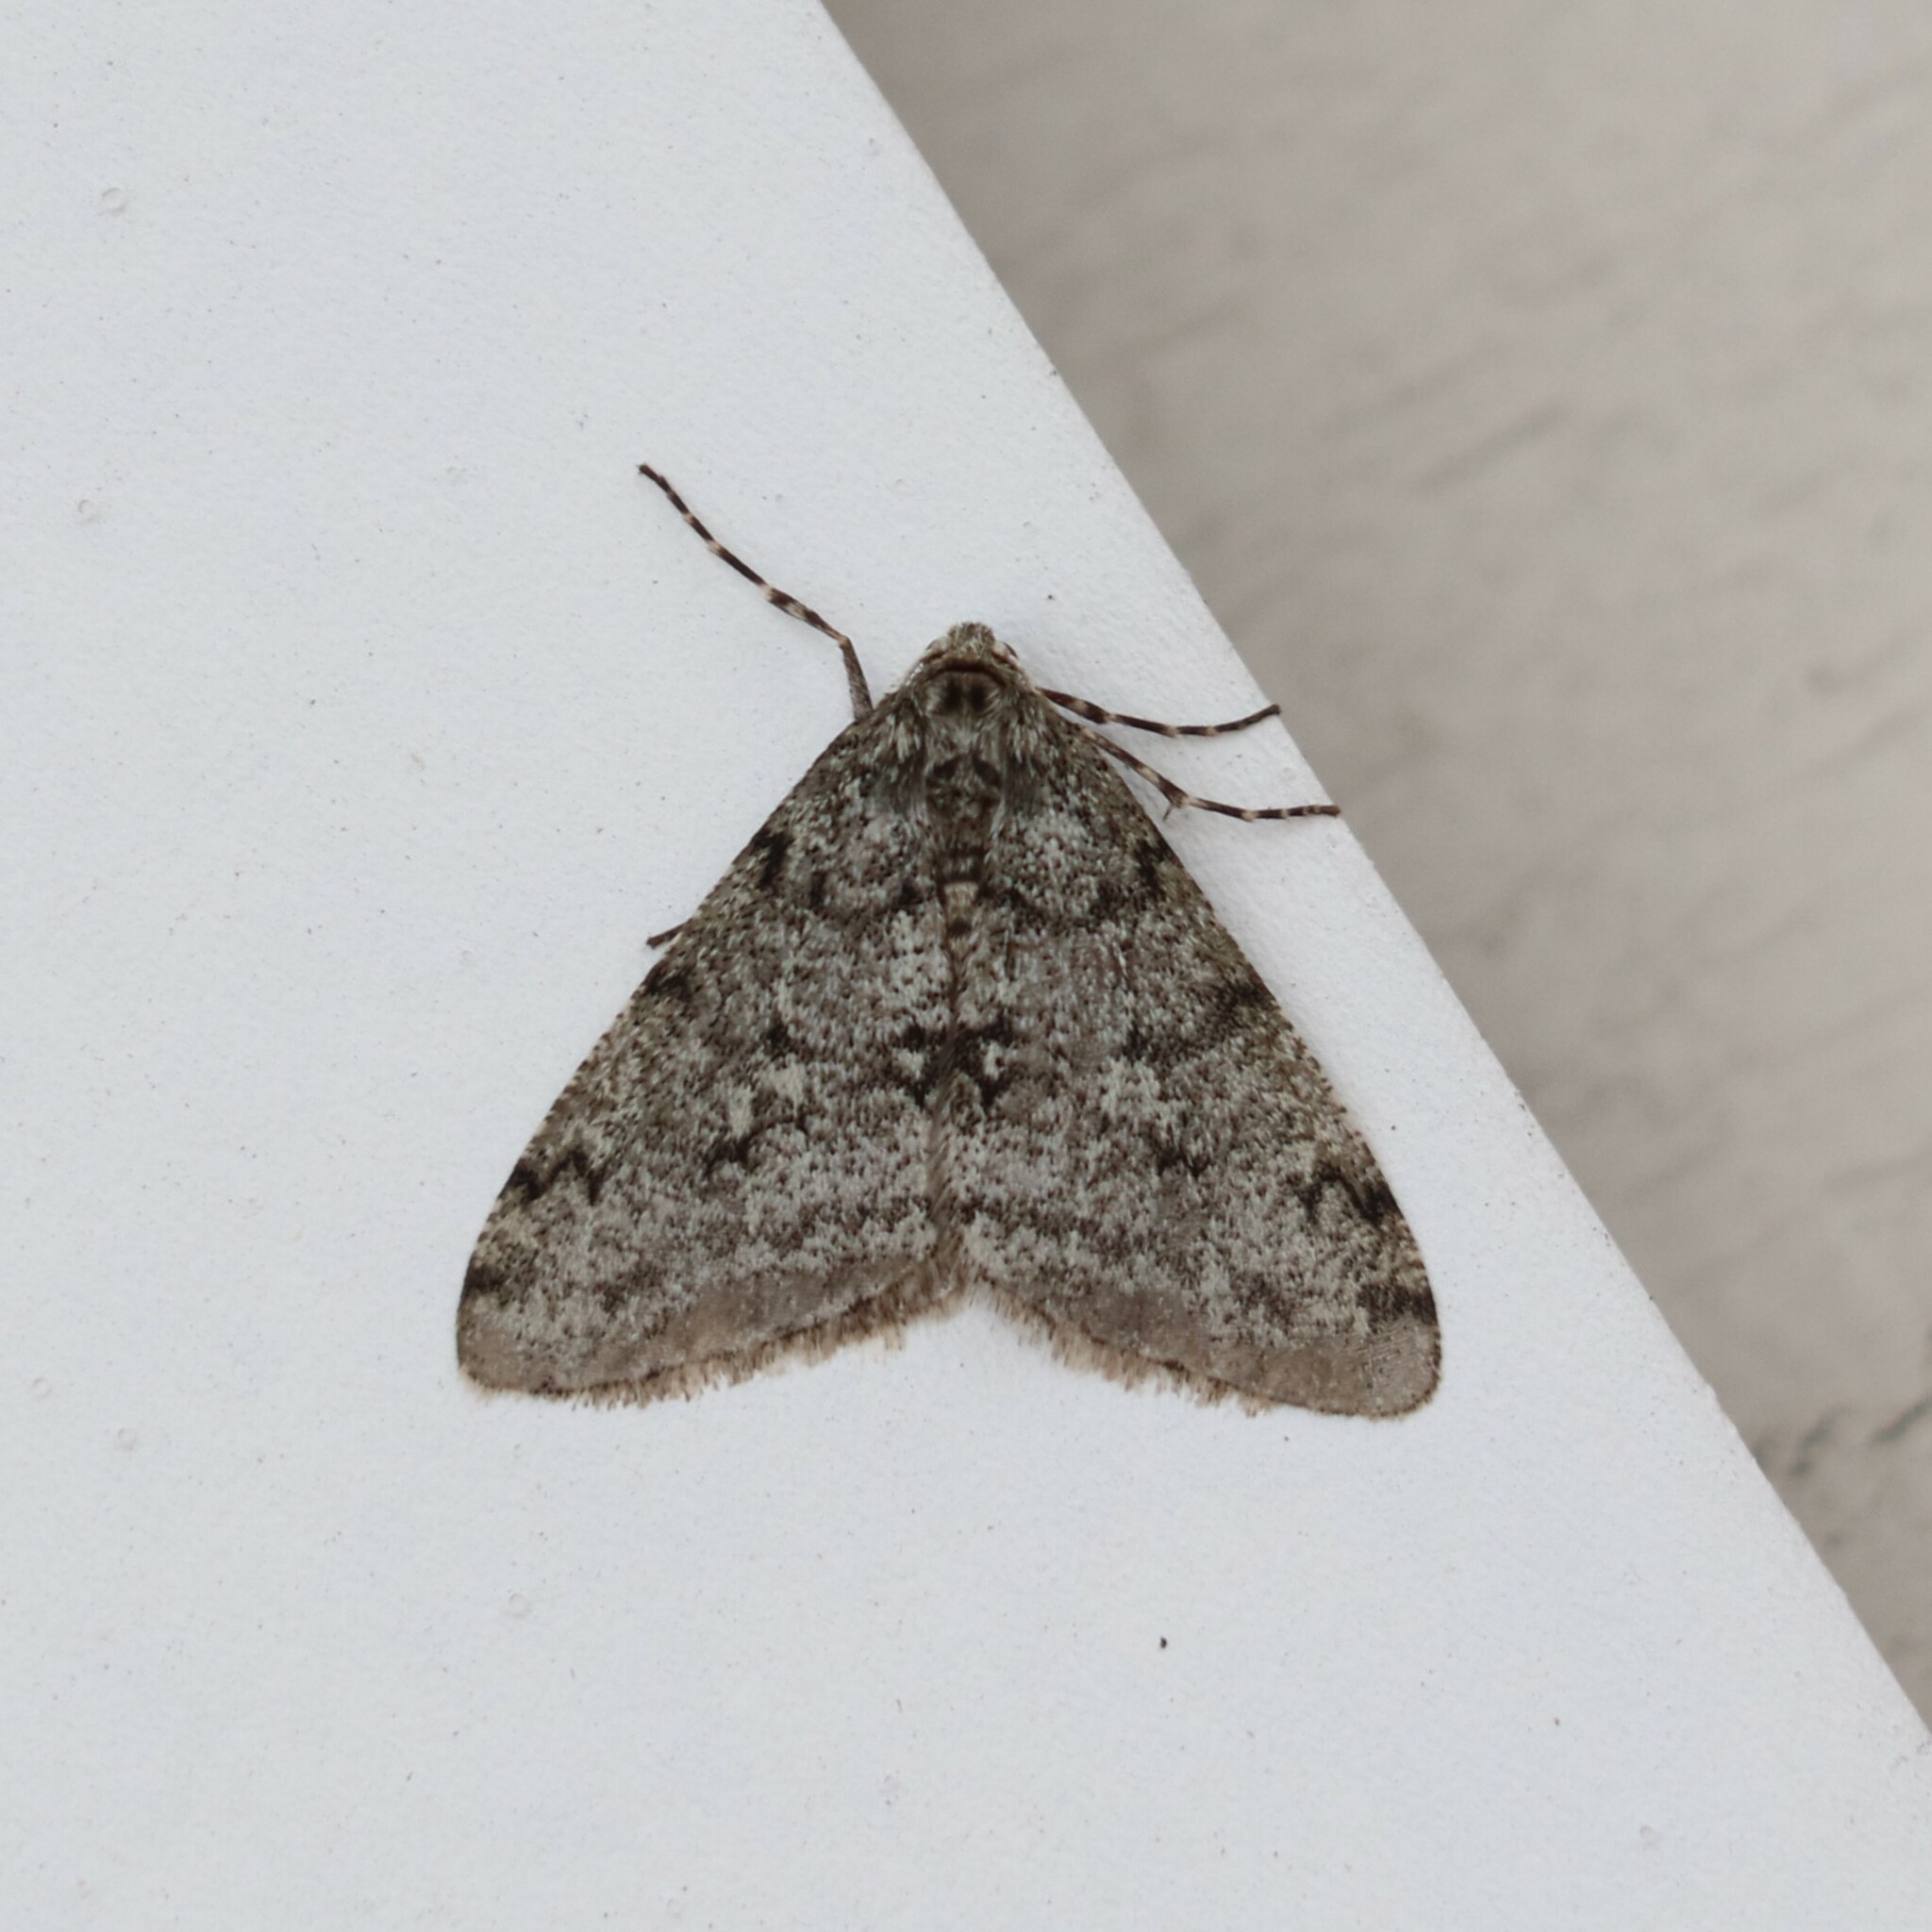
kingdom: Animalia
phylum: Arthropoda
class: Insecta
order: Lepidoptera
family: Geometridae
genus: Phigalia
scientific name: Phigalia strigataria
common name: Small phigalia
